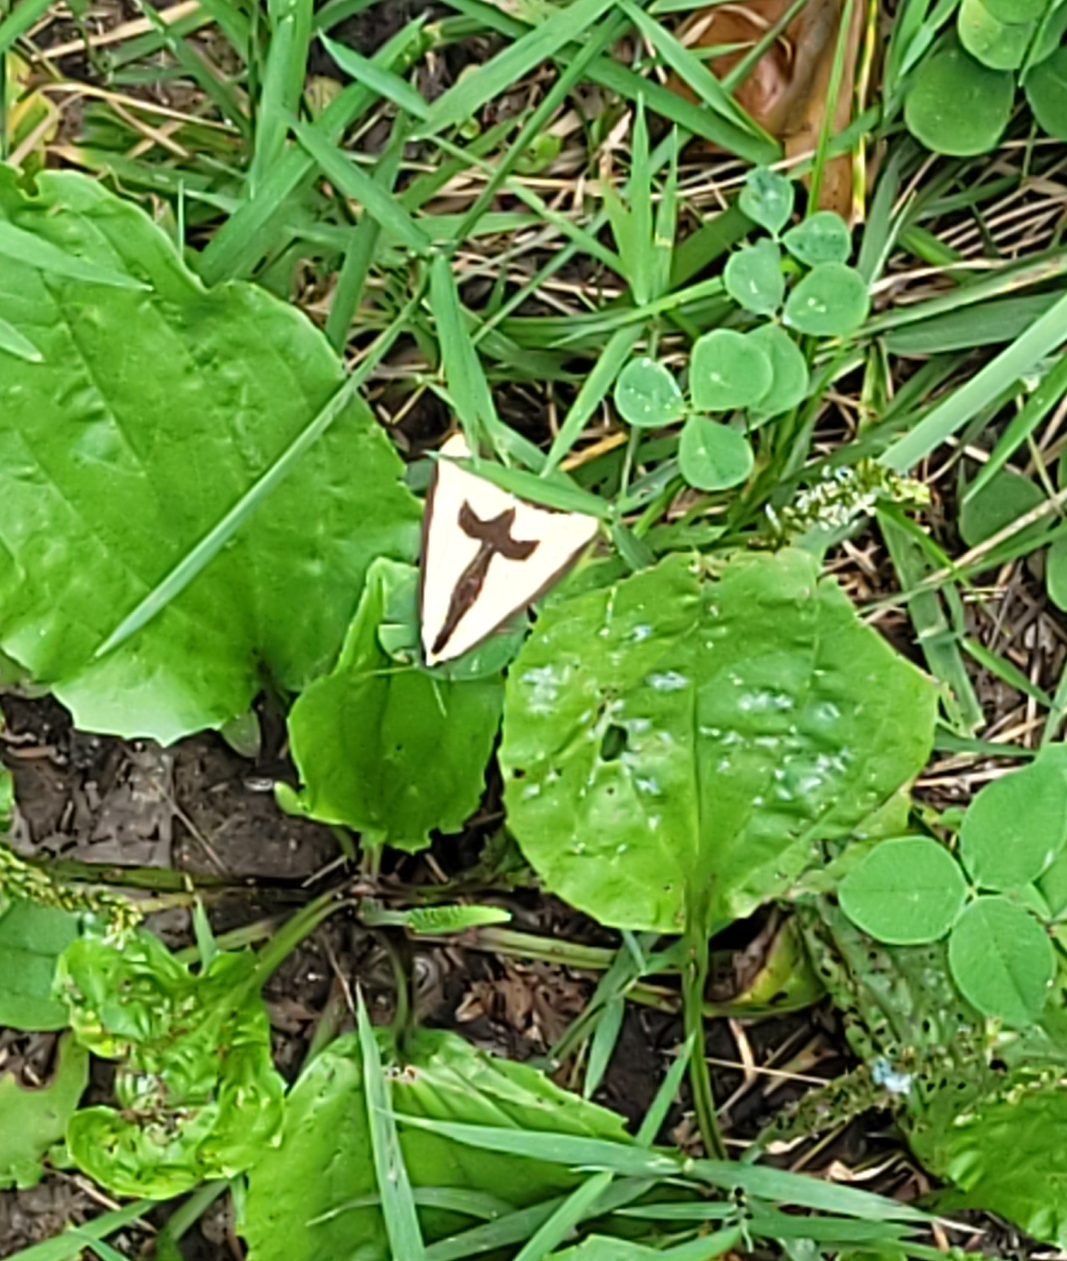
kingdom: Animalia
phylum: Arthropoda
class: Insecta
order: Lepidoptera
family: Erebidae
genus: Haploa
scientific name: Haploa clymene
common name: Clymene moth
